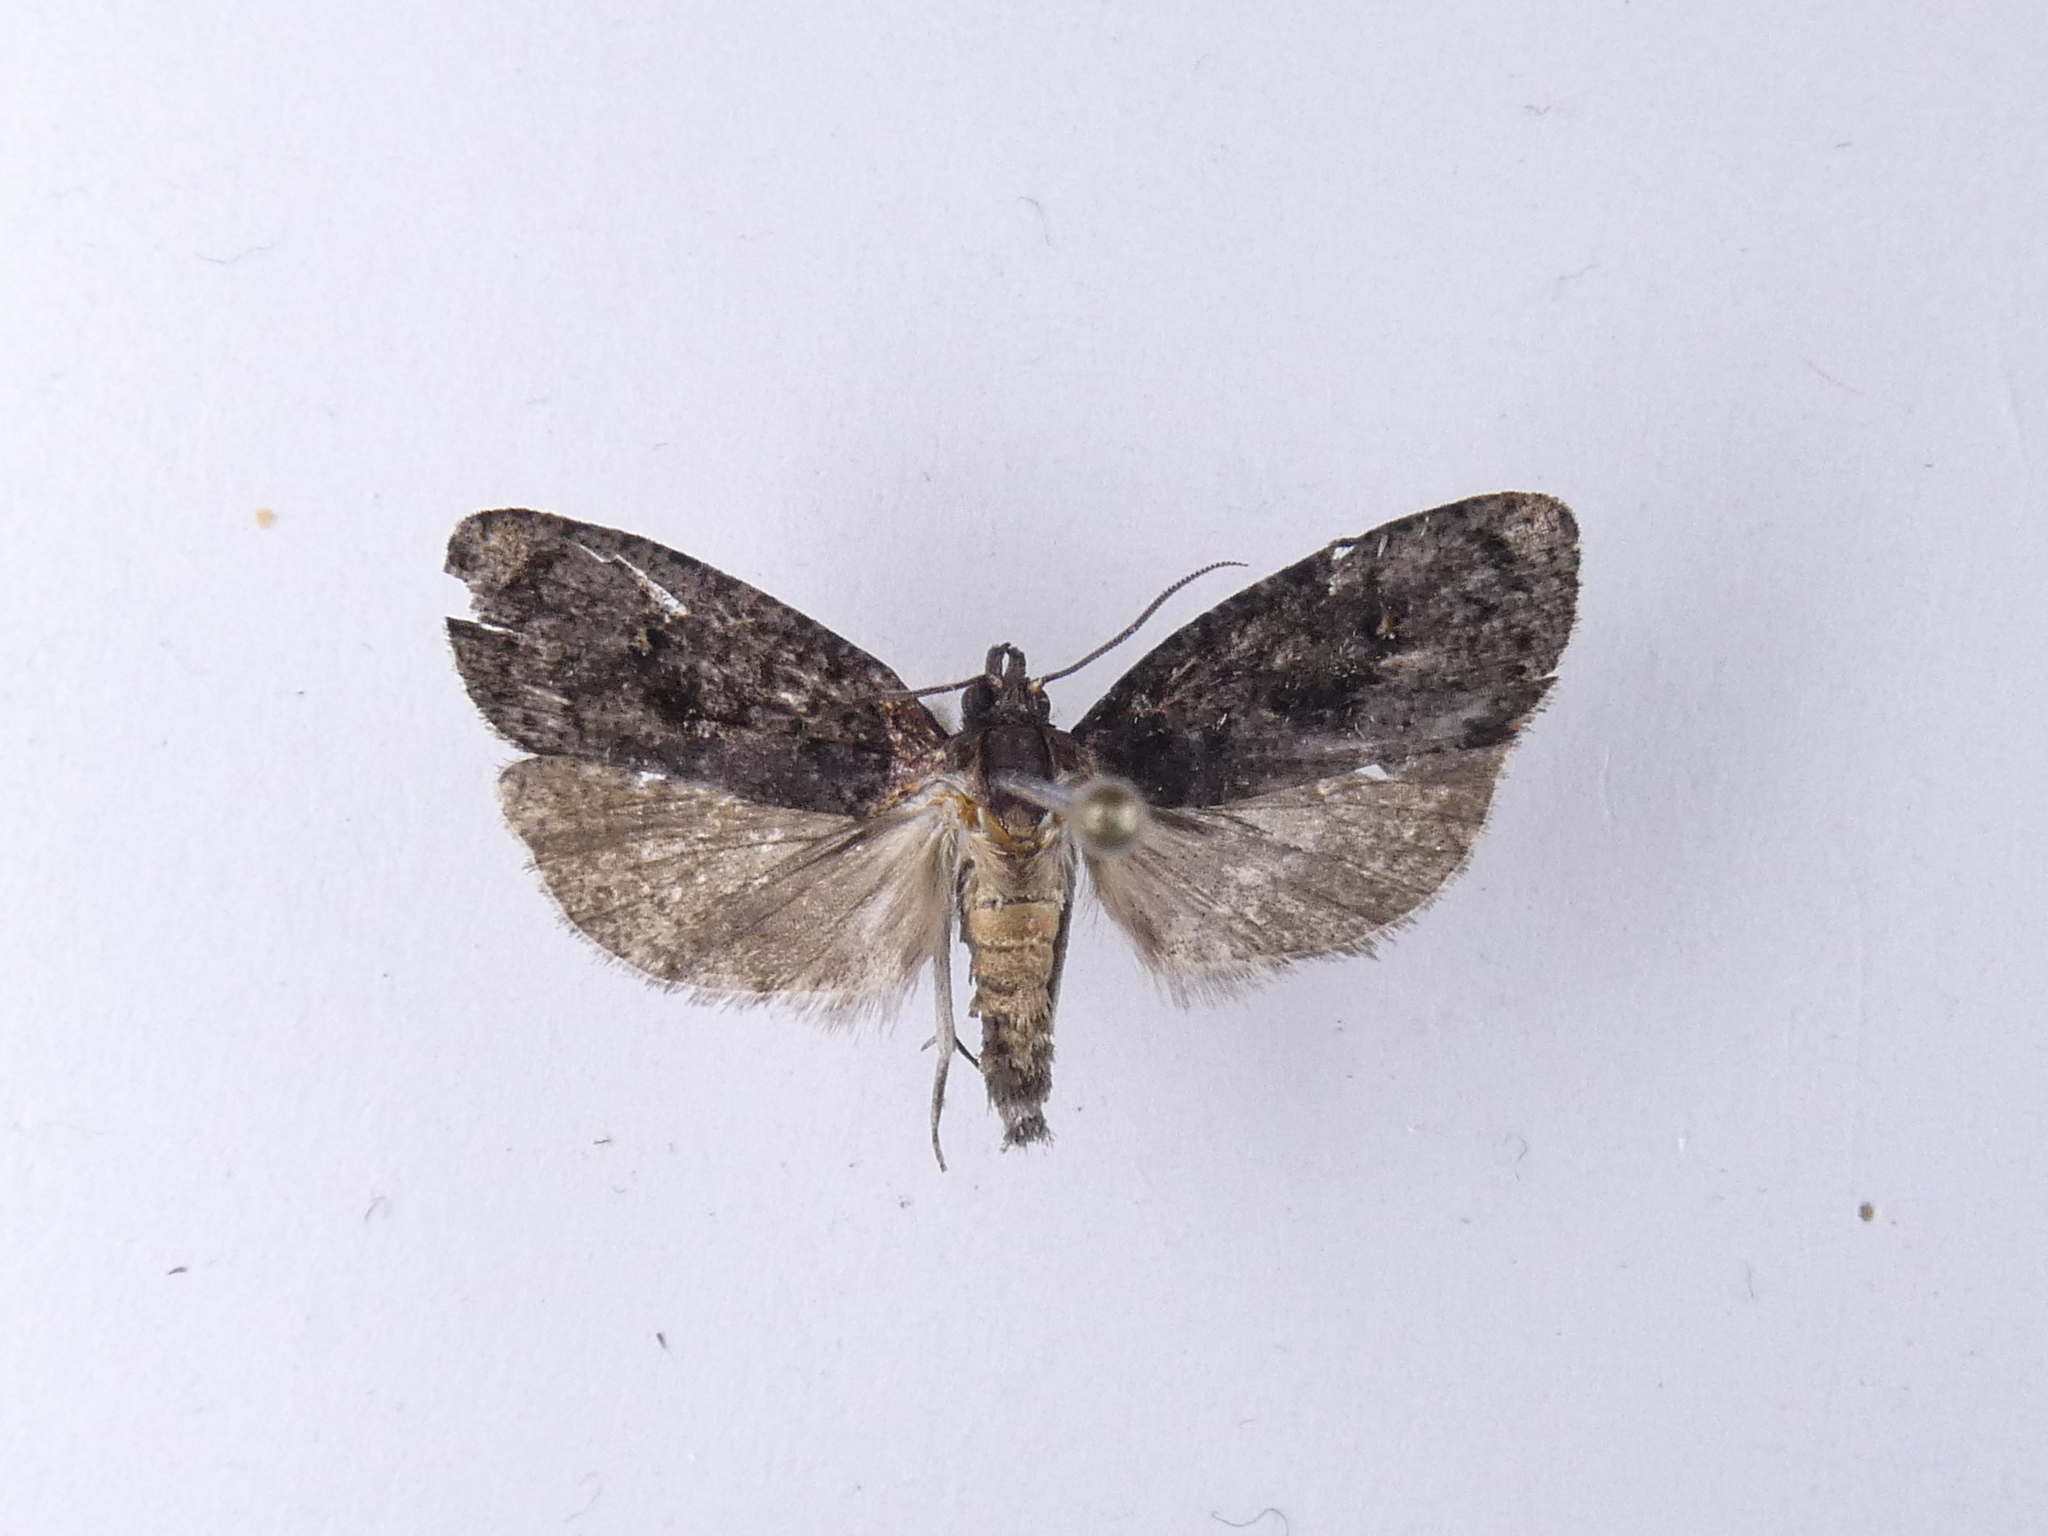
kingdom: Animalia
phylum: Arthropoda
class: Insecta
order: Lepidoptera
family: Tortricidae
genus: Cryptaspasma
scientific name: Cryptaspasma querula
